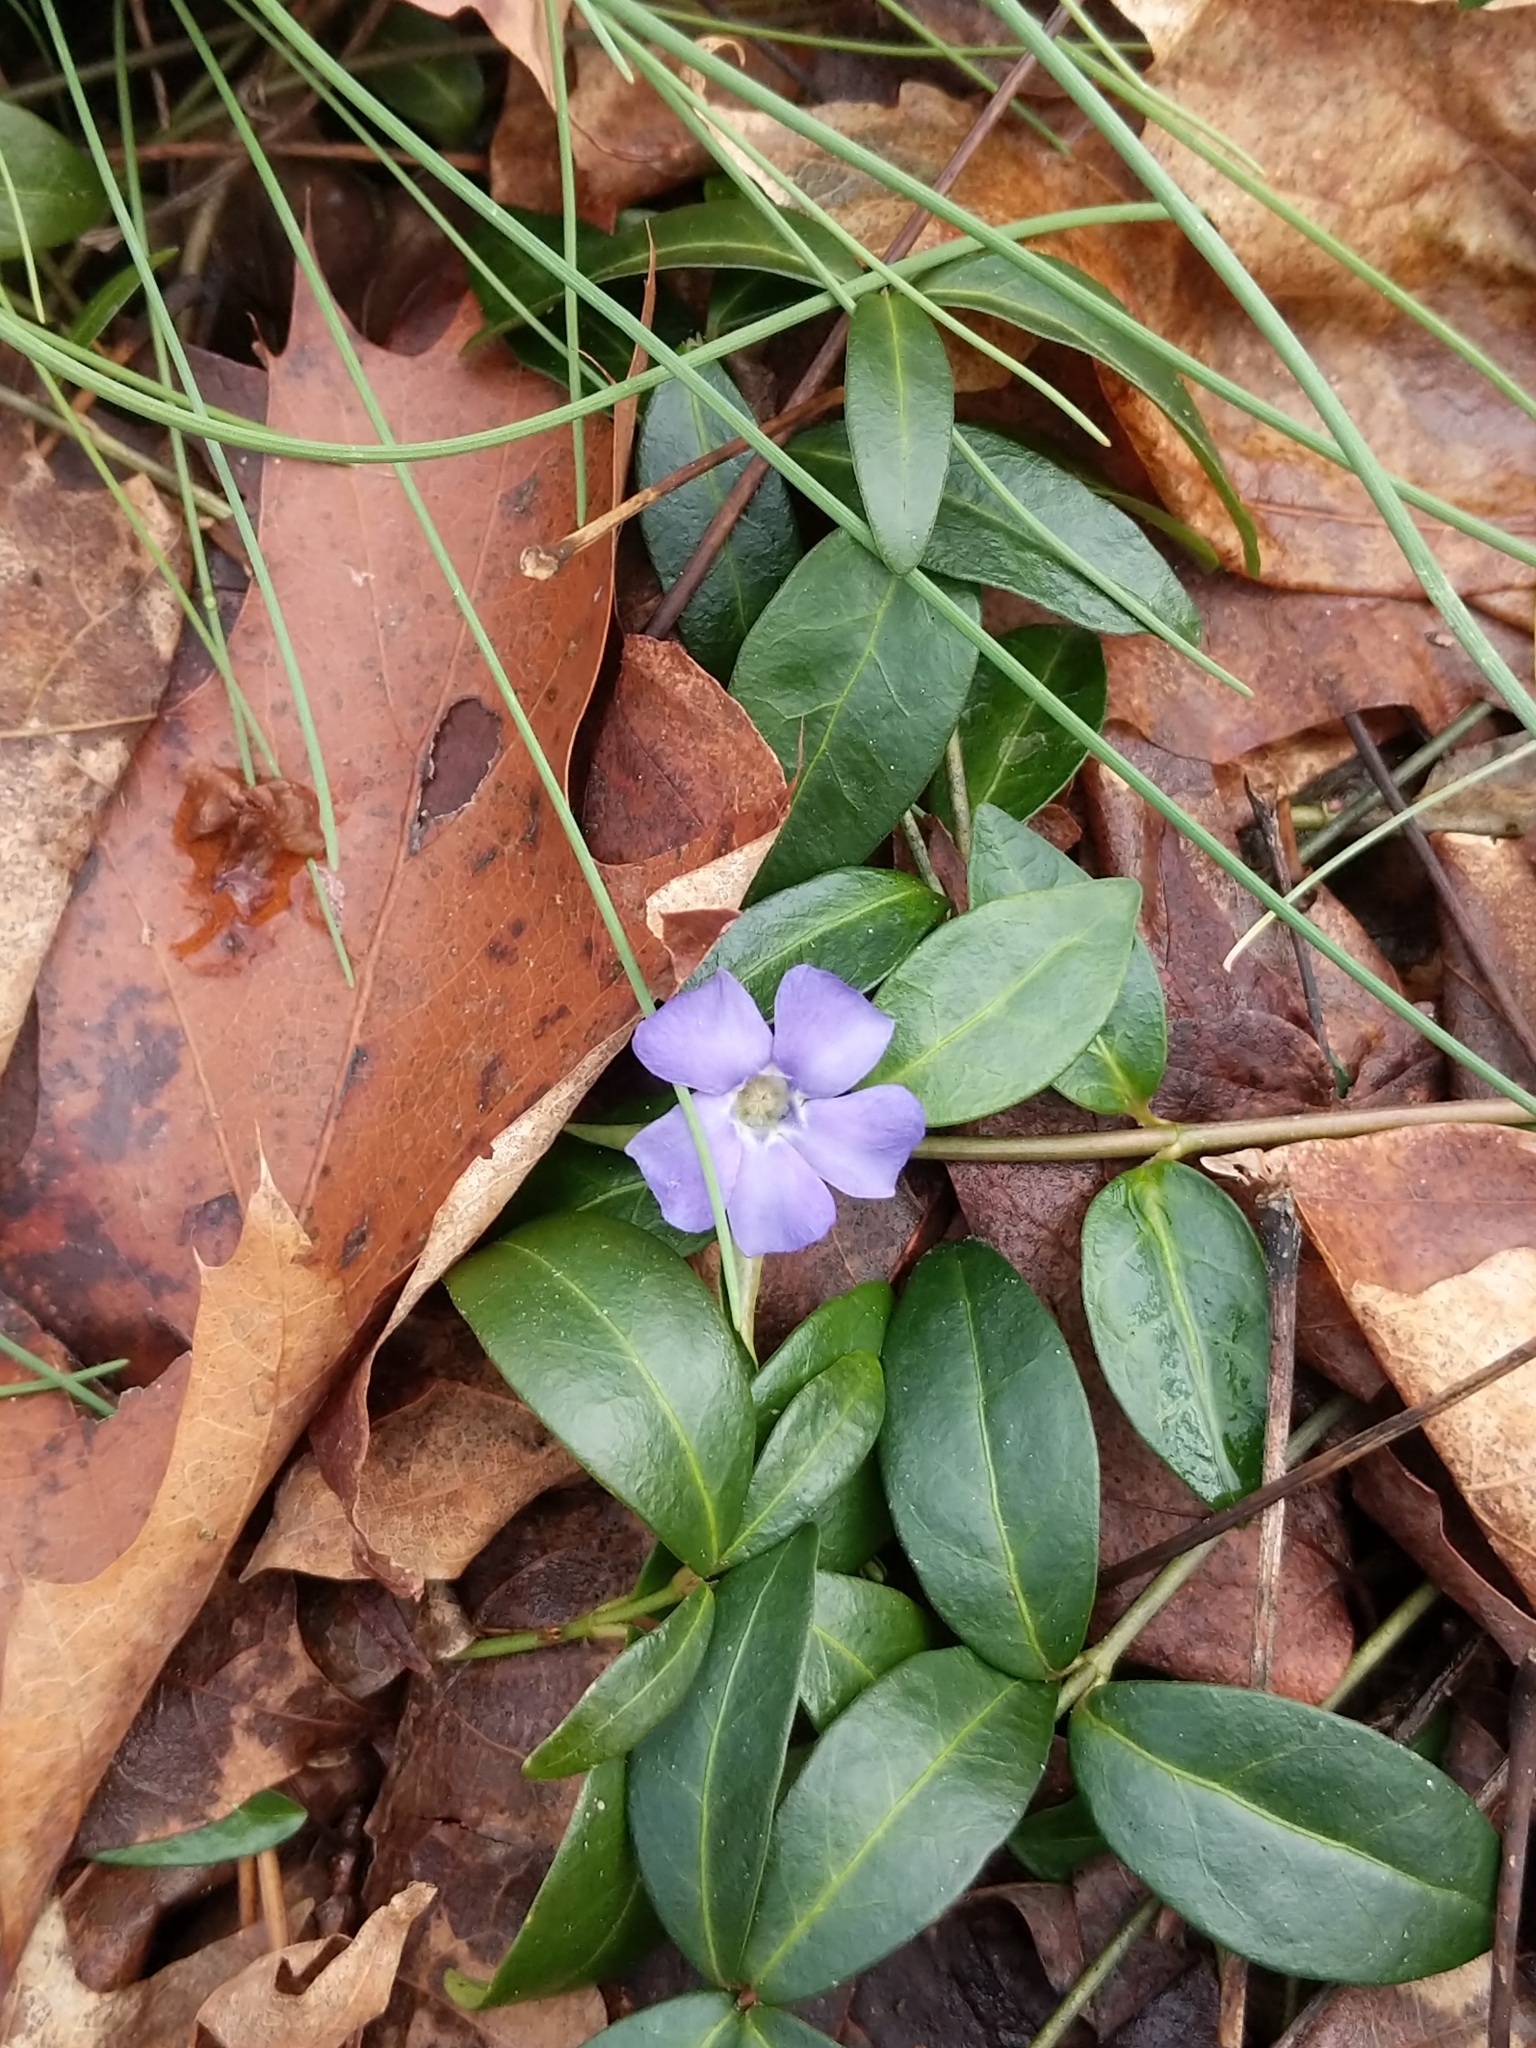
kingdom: Plantae
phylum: Tracheophyta
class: Magnoliopsida
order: Gentianales
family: Apocynaceae
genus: Vinca
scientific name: Vinca minor
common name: Lesser periwinkle
